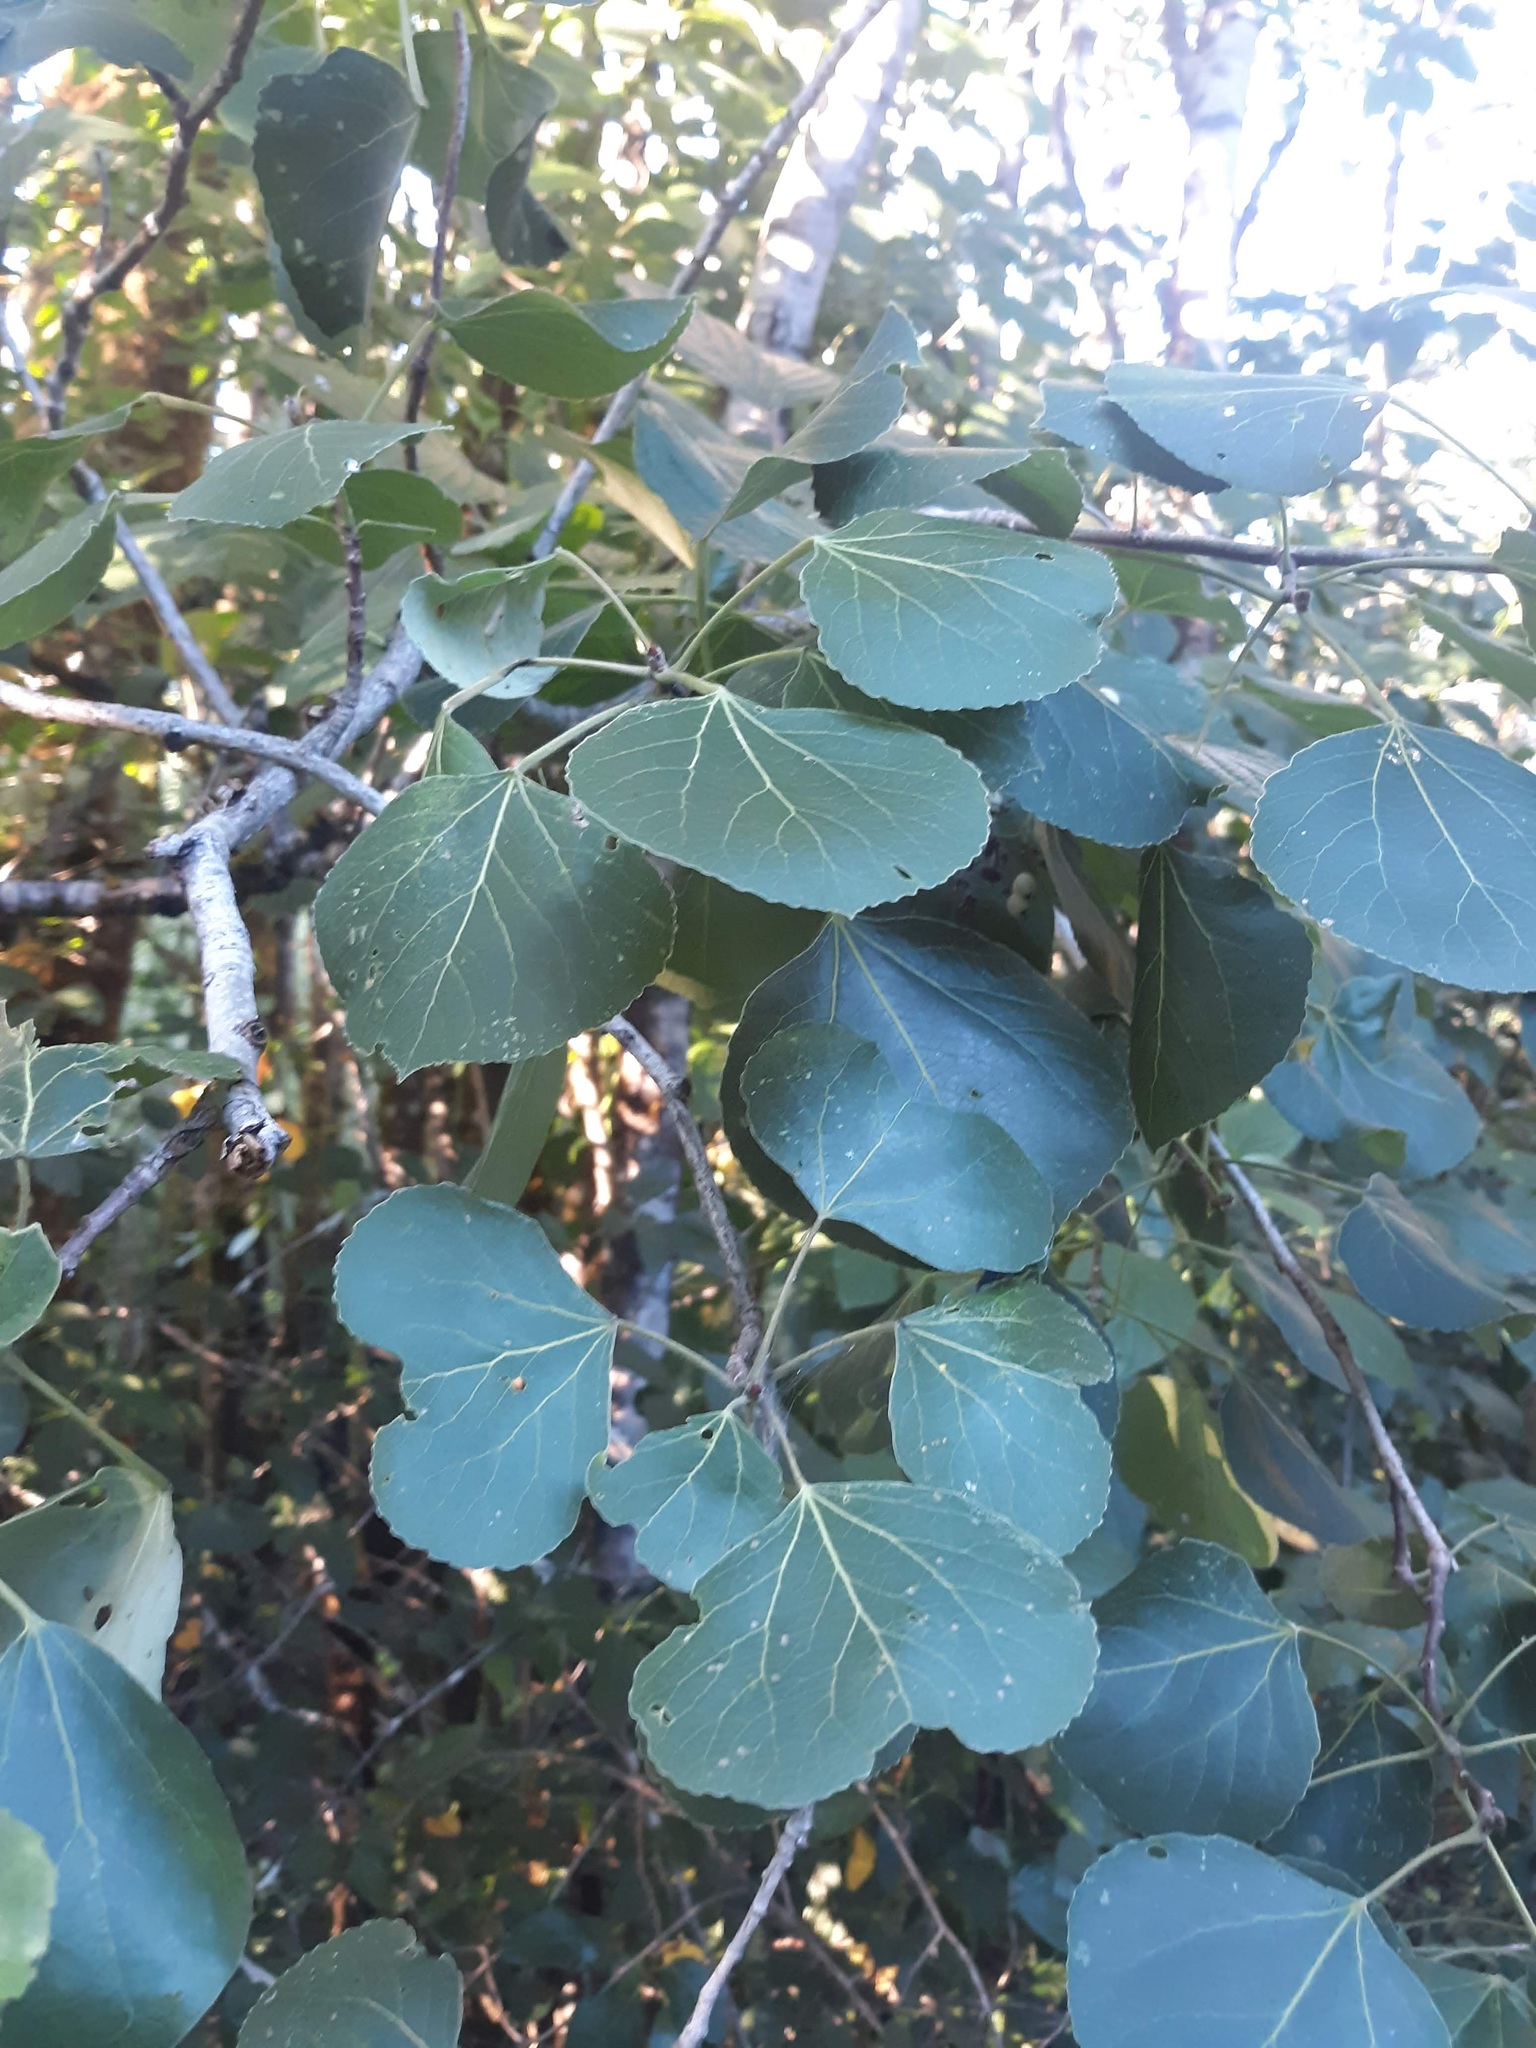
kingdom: Plantae
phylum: Tracheophyta
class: Magnoliopsida
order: Malpighiales
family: Salicaceae
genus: Populus
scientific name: Populus tremuloides
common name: Quaking aspen
